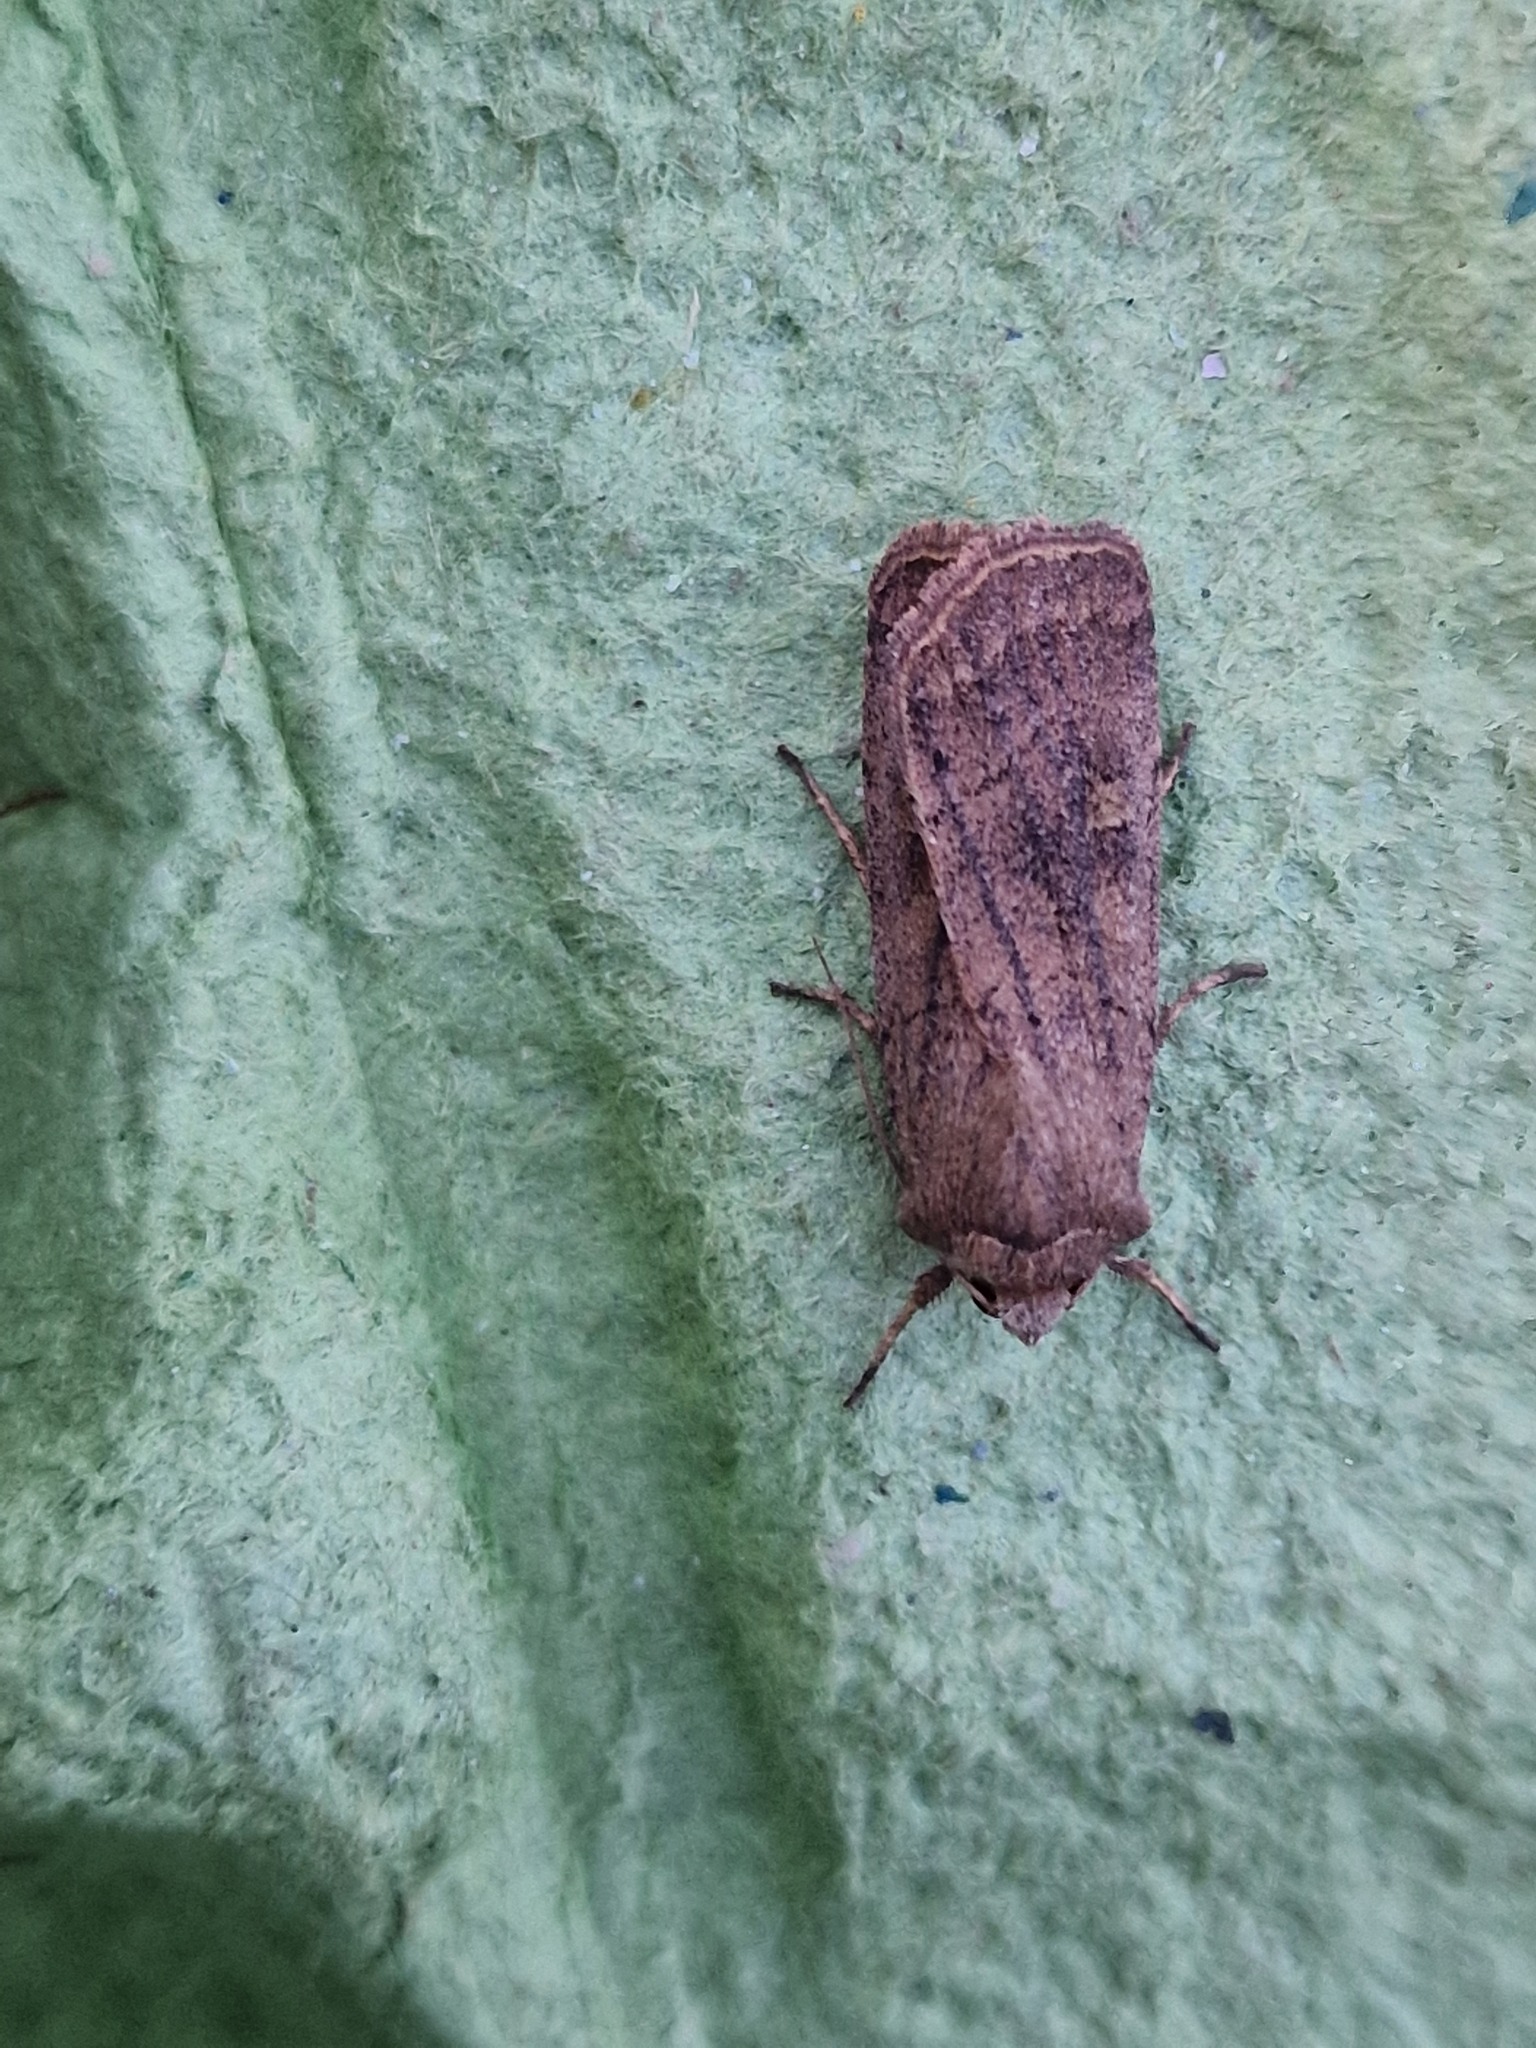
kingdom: Animalia
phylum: Arthropoda
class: Insecta
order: Lepidoptera
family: Noctuidae
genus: Xestia
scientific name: Xestia xanthographa
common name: Square-spot rustic
